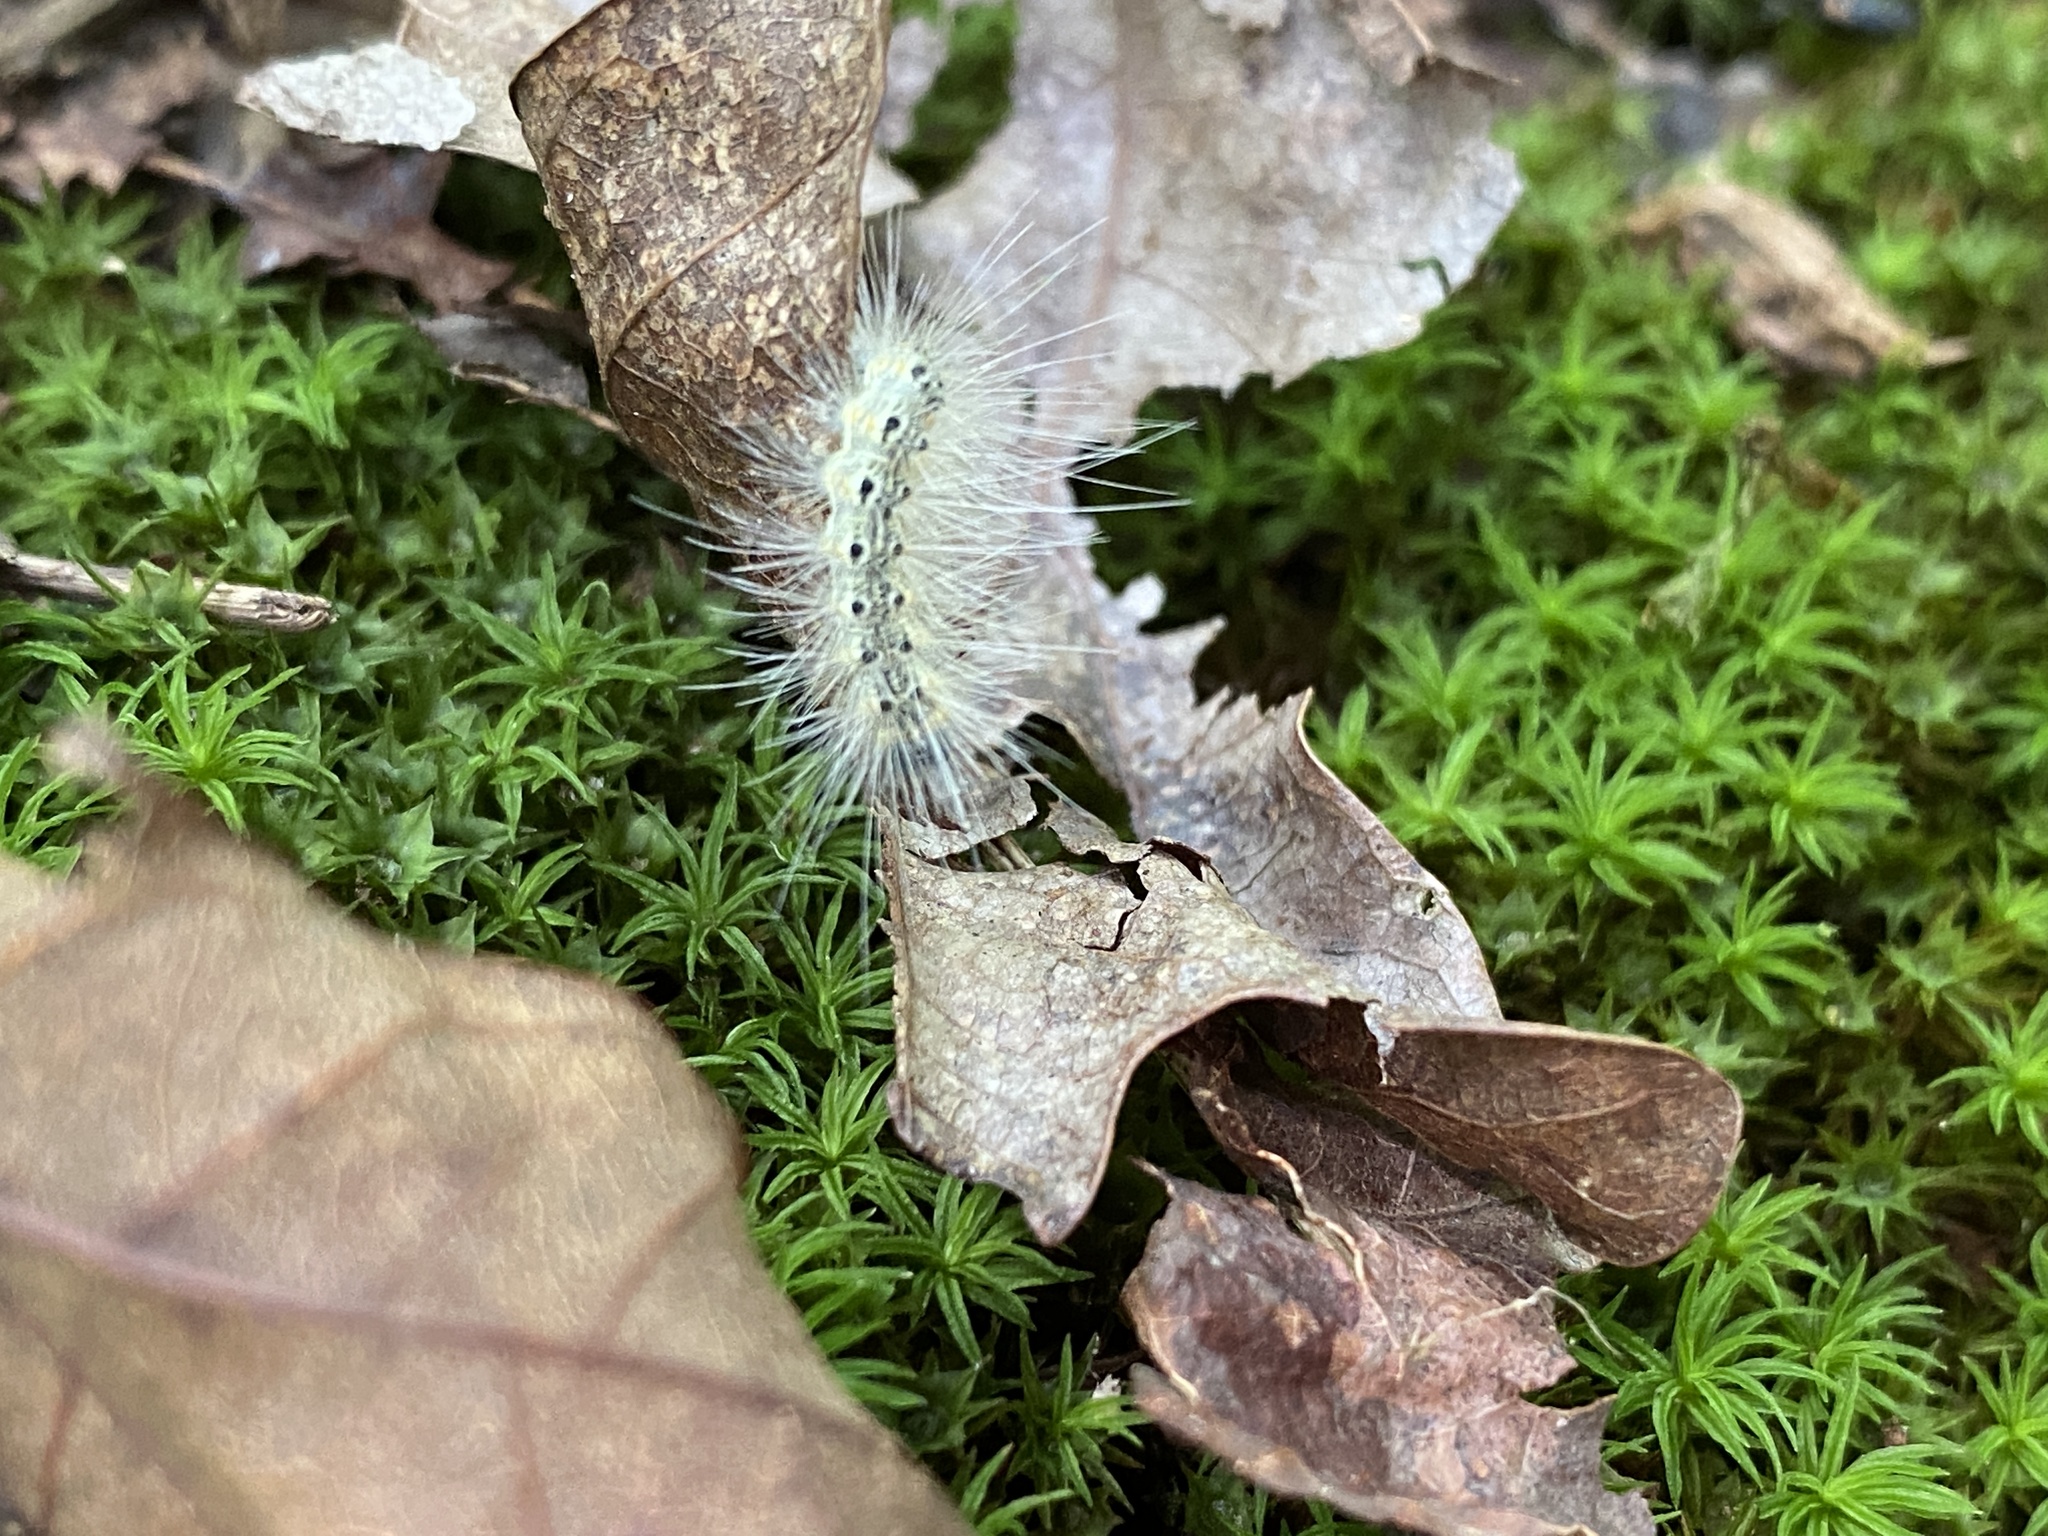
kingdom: Animalia
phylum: Arthropoda
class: Insecta
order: Lepidoptera
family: Erebidae
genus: Hyphantria
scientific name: Hyphantria cunea
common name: American white moth
